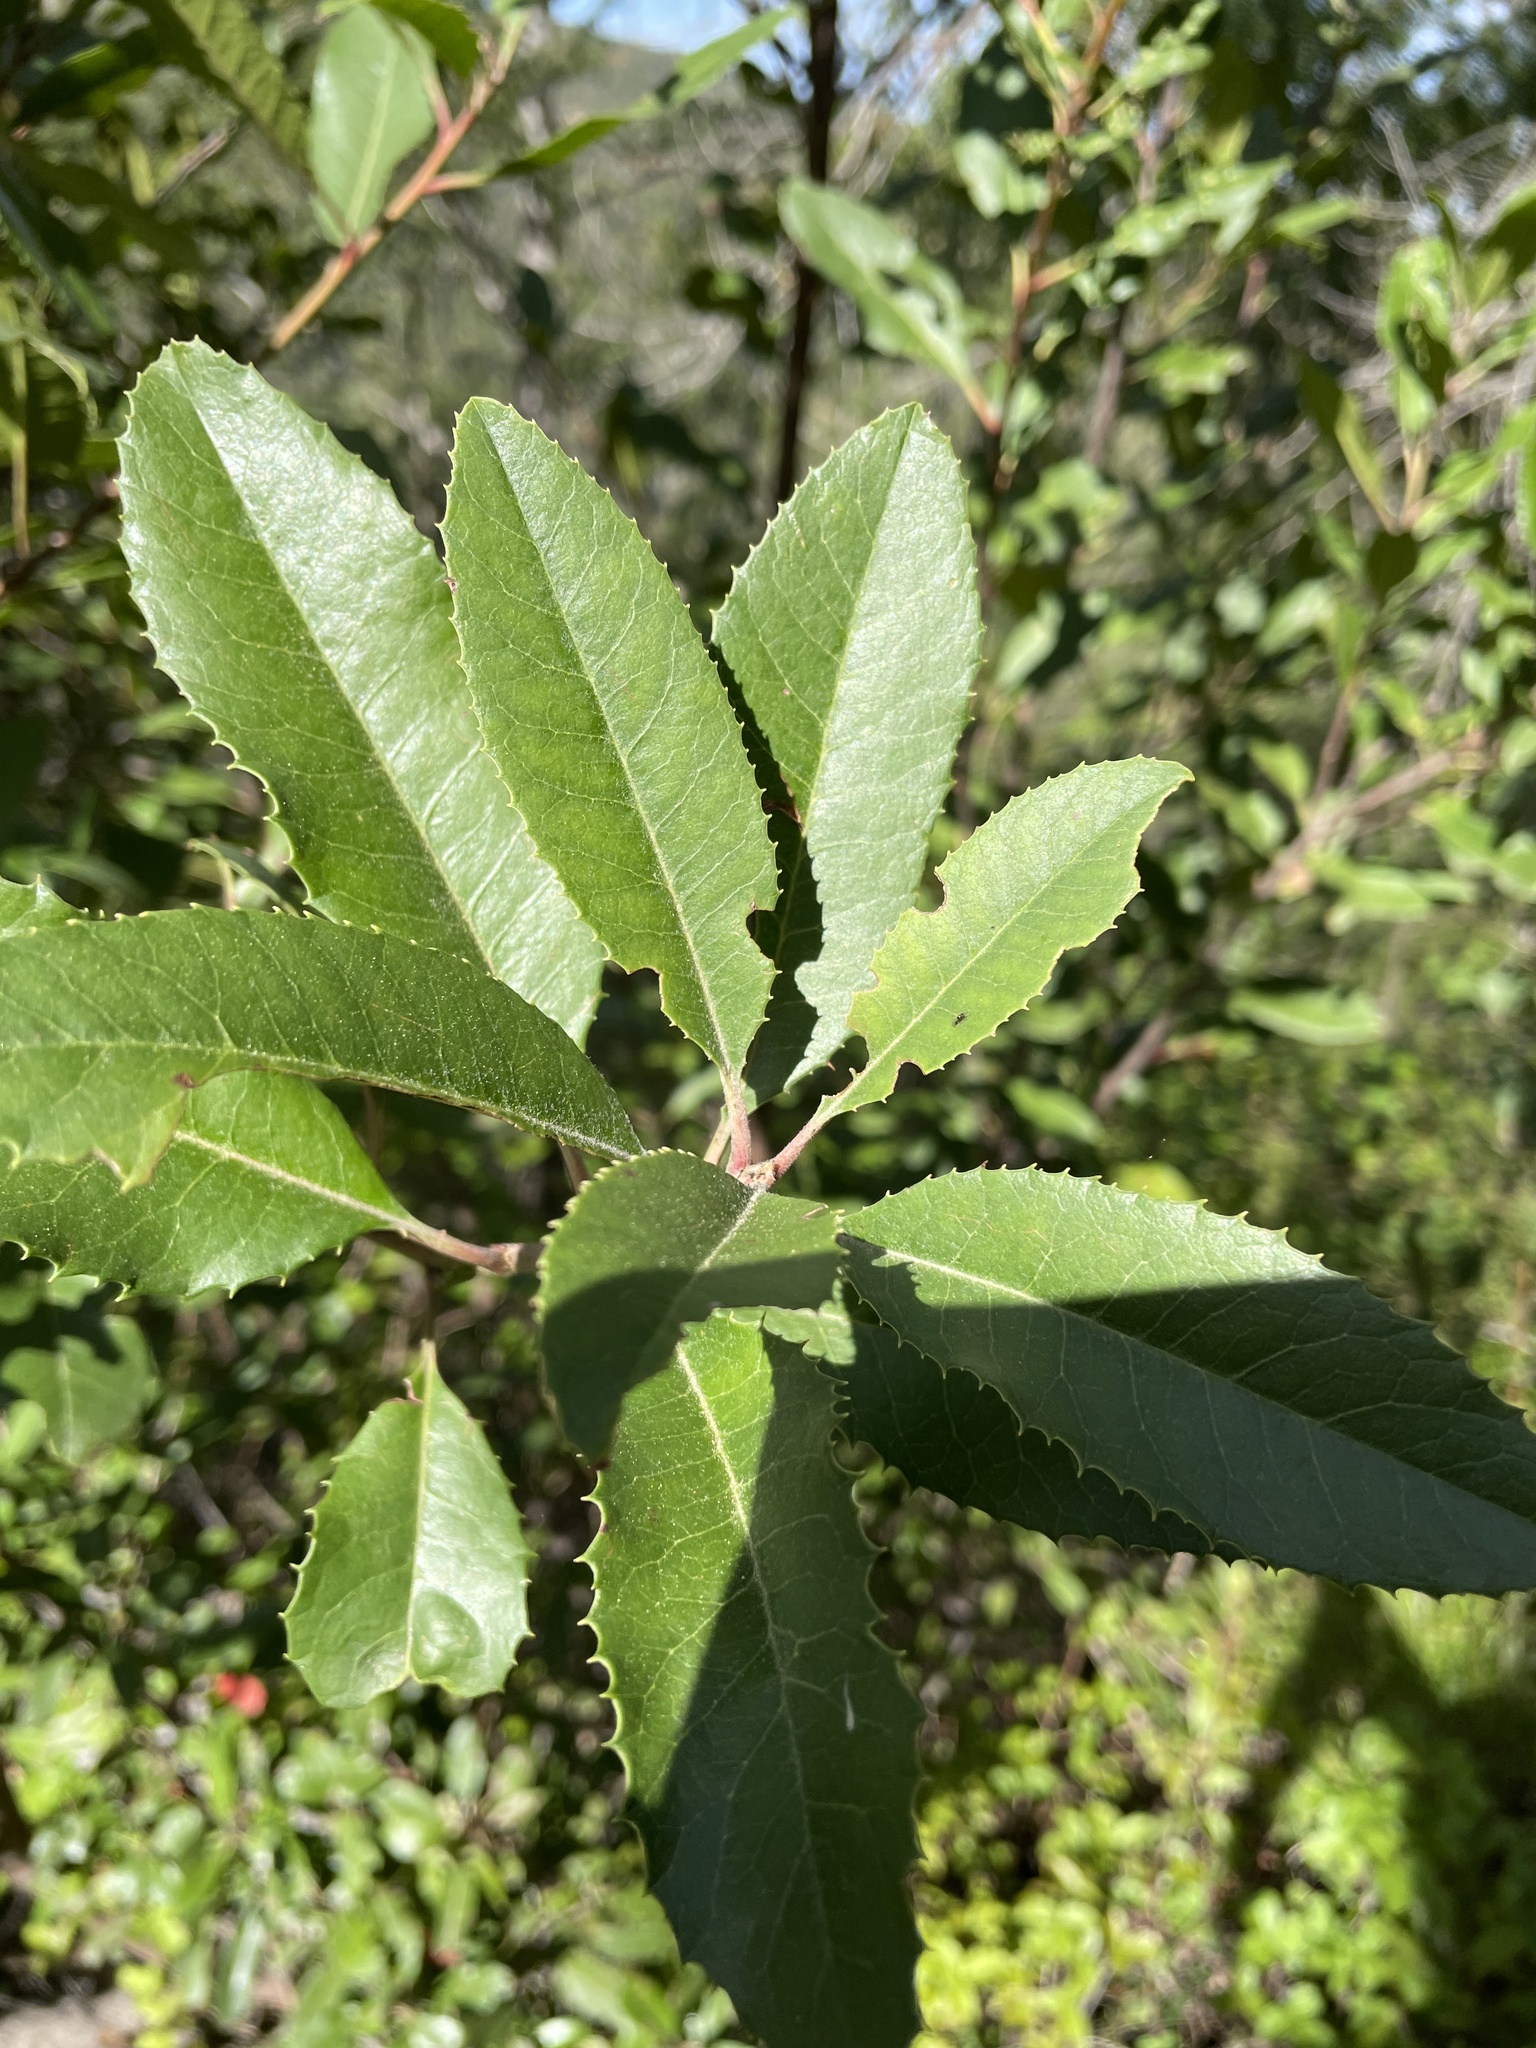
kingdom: Plantae
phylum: Tracheophyta
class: Magnoliopsida
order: Rosales
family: Rosaceae
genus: Heteromeles
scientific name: Heteromeles arbutifolia
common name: California-holly
